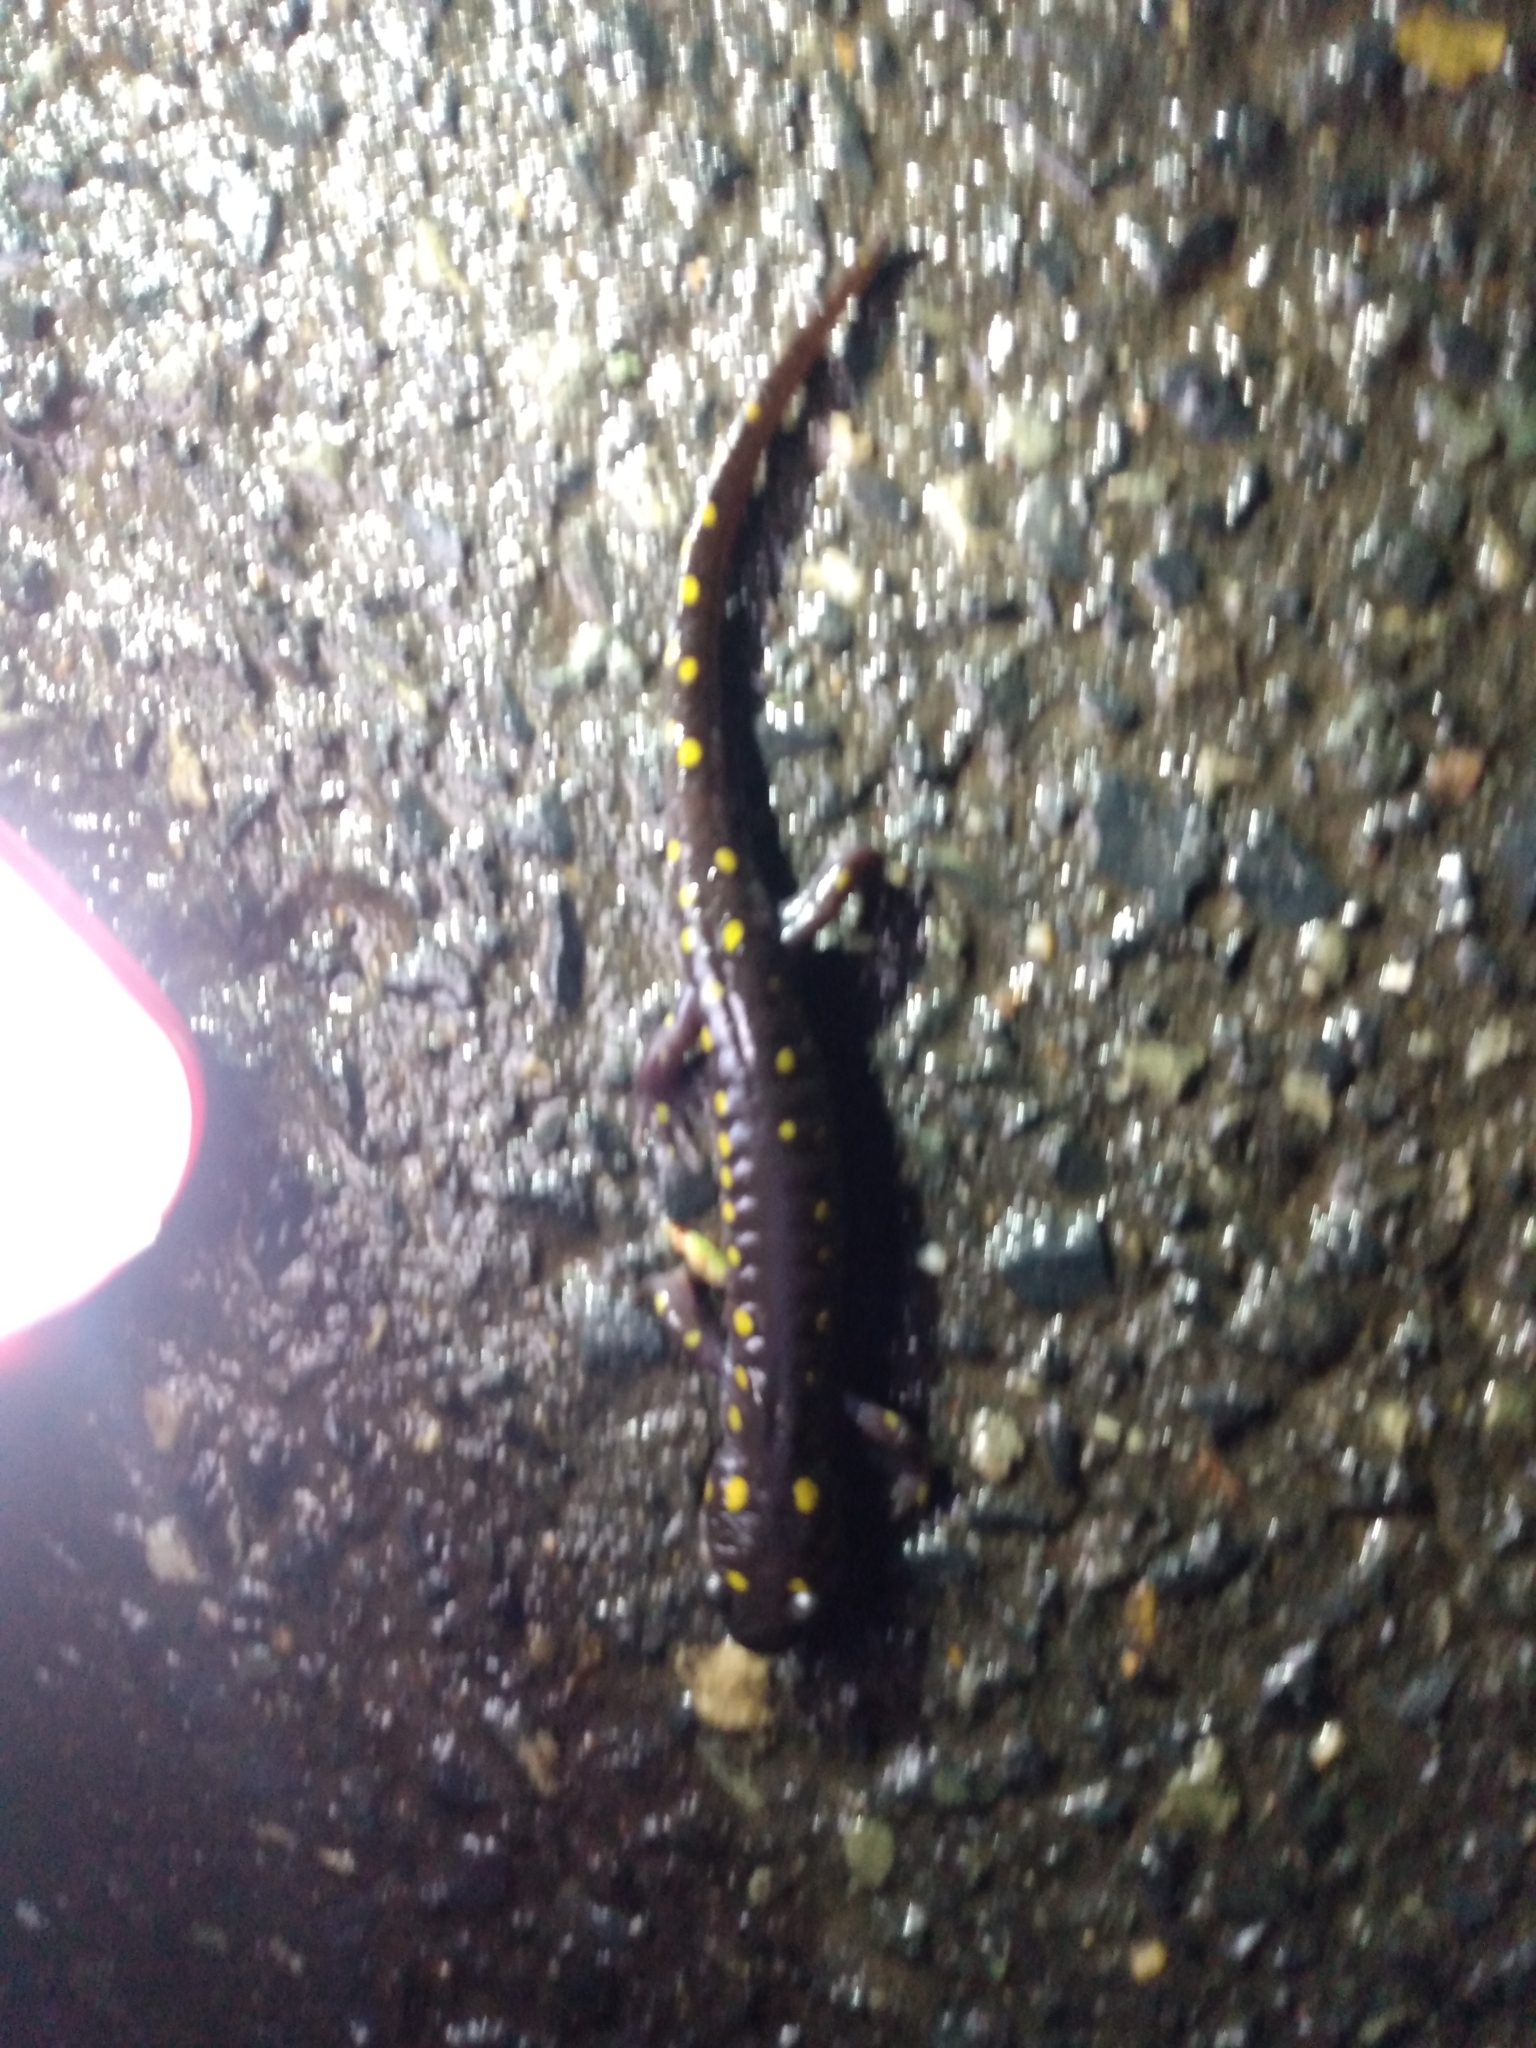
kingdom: Animalia
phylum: Chordata
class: Amphibia
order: Caudata
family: Ambystomatidae
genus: Ambystoma
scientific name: Ambystoma maculatum
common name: Spotted salamander
